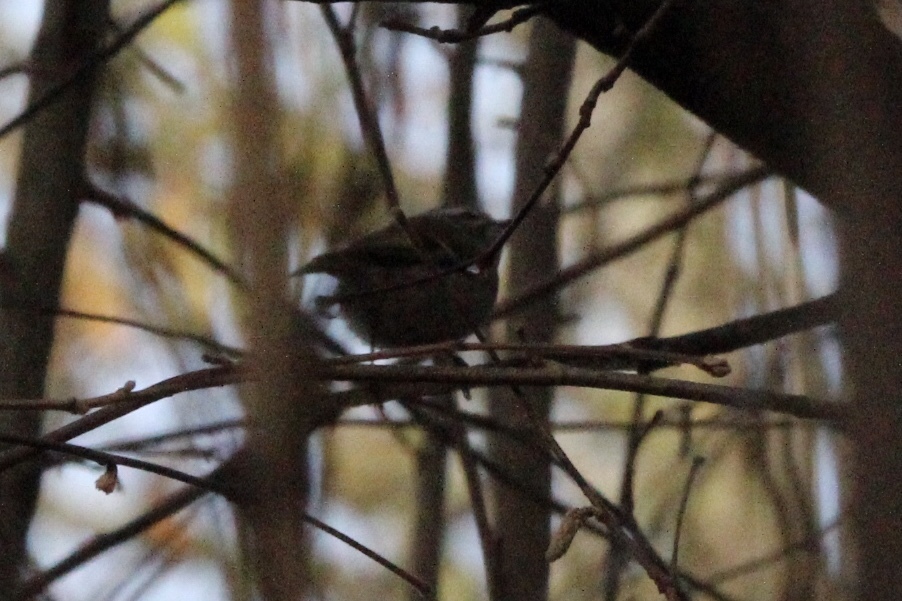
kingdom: Animalia
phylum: Chordata
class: Aves
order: Passeriformes
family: Regulidae
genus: Regulus
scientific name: Regulus satrapa
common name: Golden-crowned kinglet
